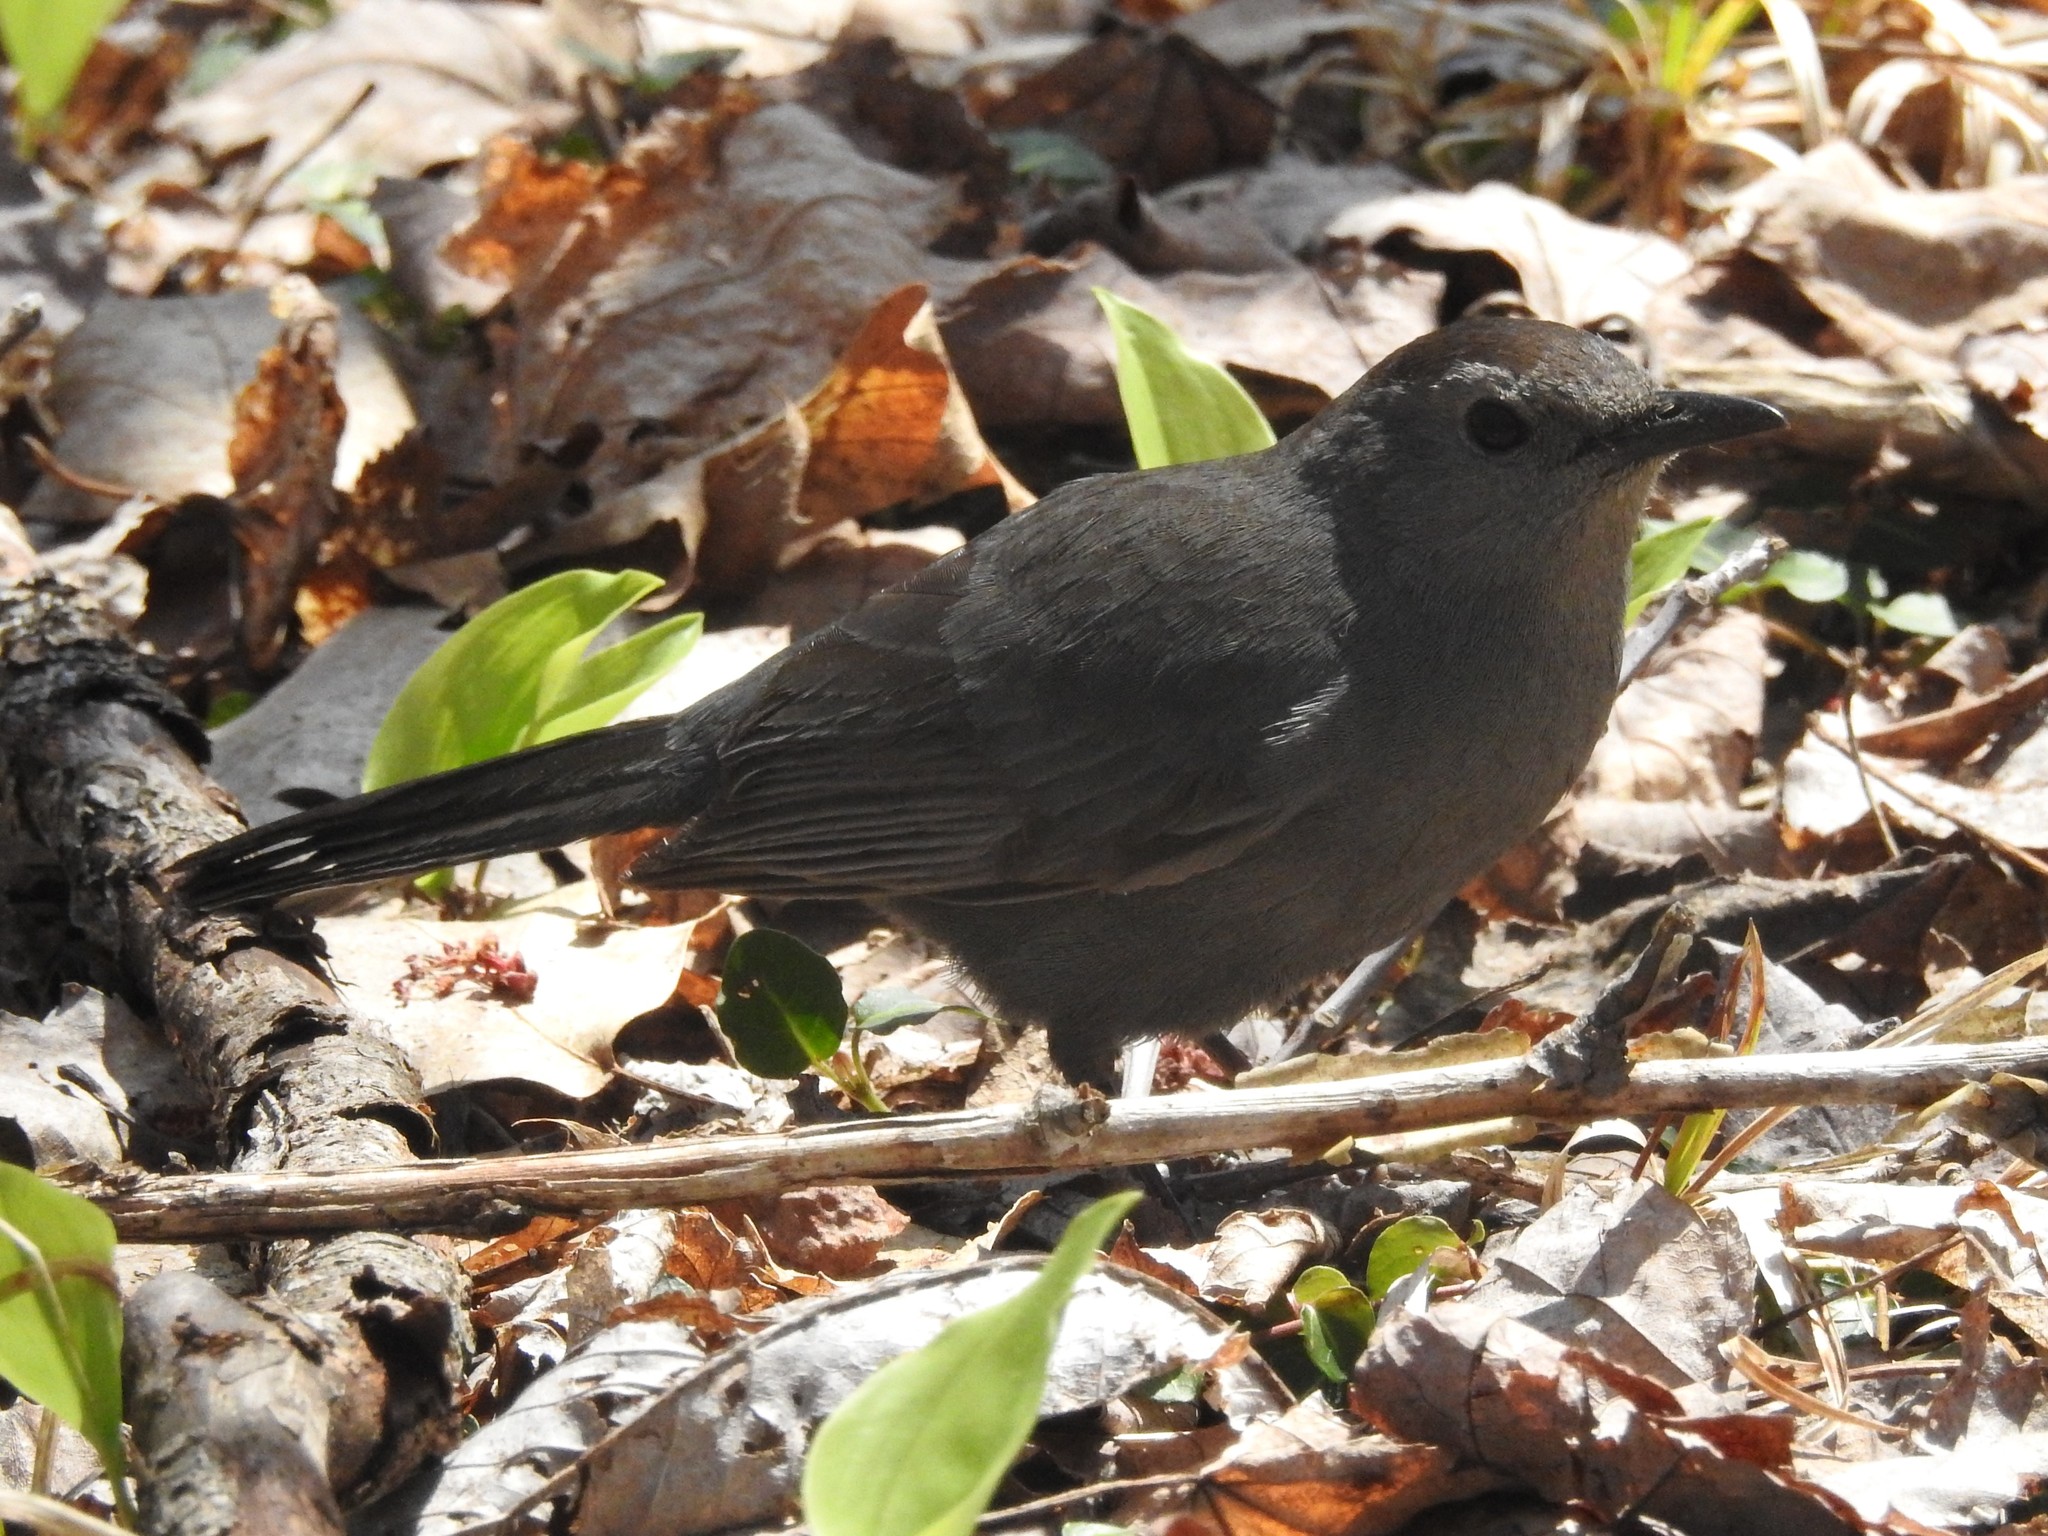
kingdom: Animalia
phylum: Chordata
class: Aves
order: Passeriformes
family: Mimidae
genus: Dumetella
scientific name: Dumetella carolinensis
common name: Gray catbird
